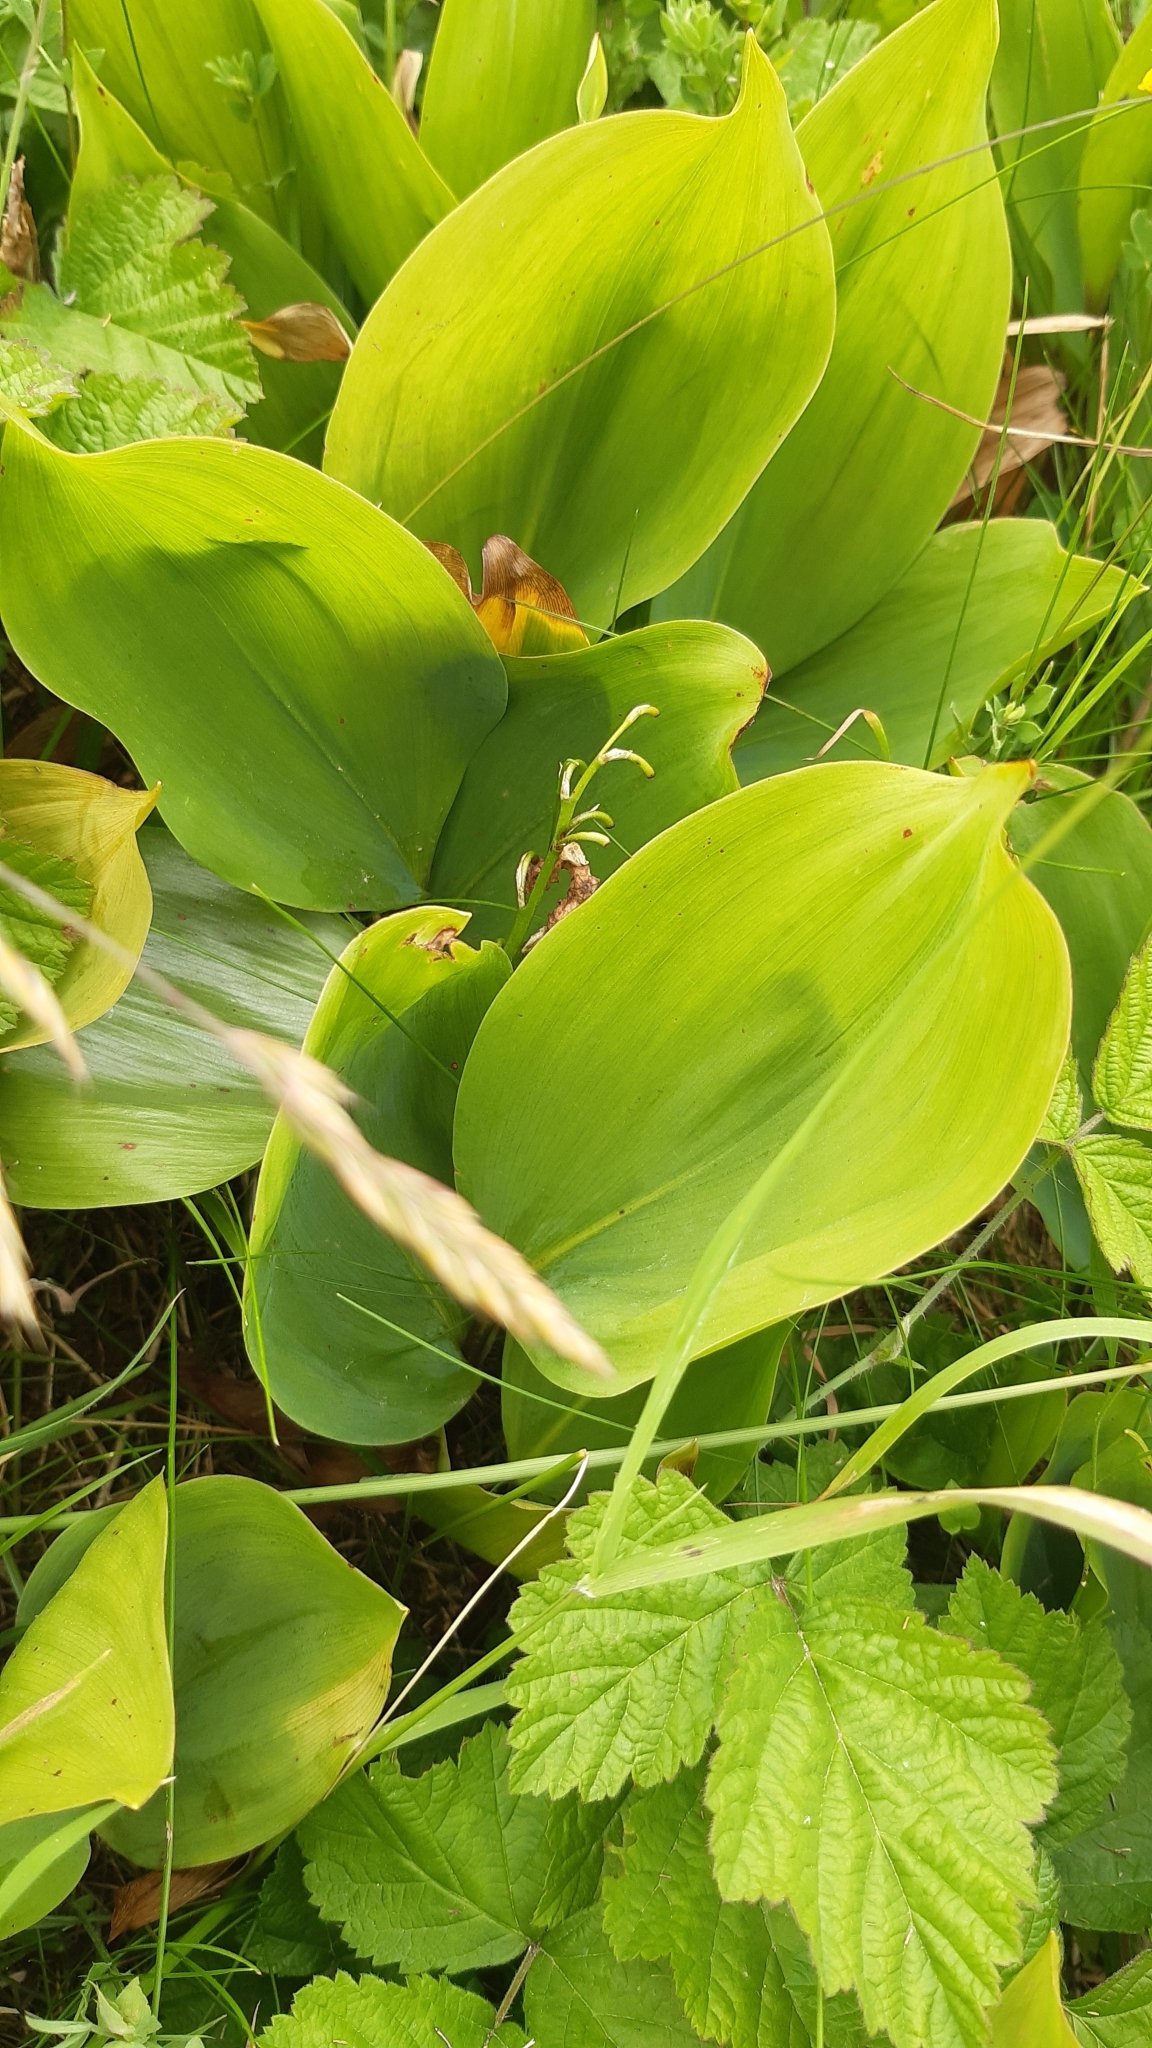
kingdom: Plantae
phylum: Tracheophyta
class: Liliopsida
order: Asparagales
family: Asparagaceae
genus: Convallaria
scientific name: Convallaria majalis
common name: Lily-of-the-valley
